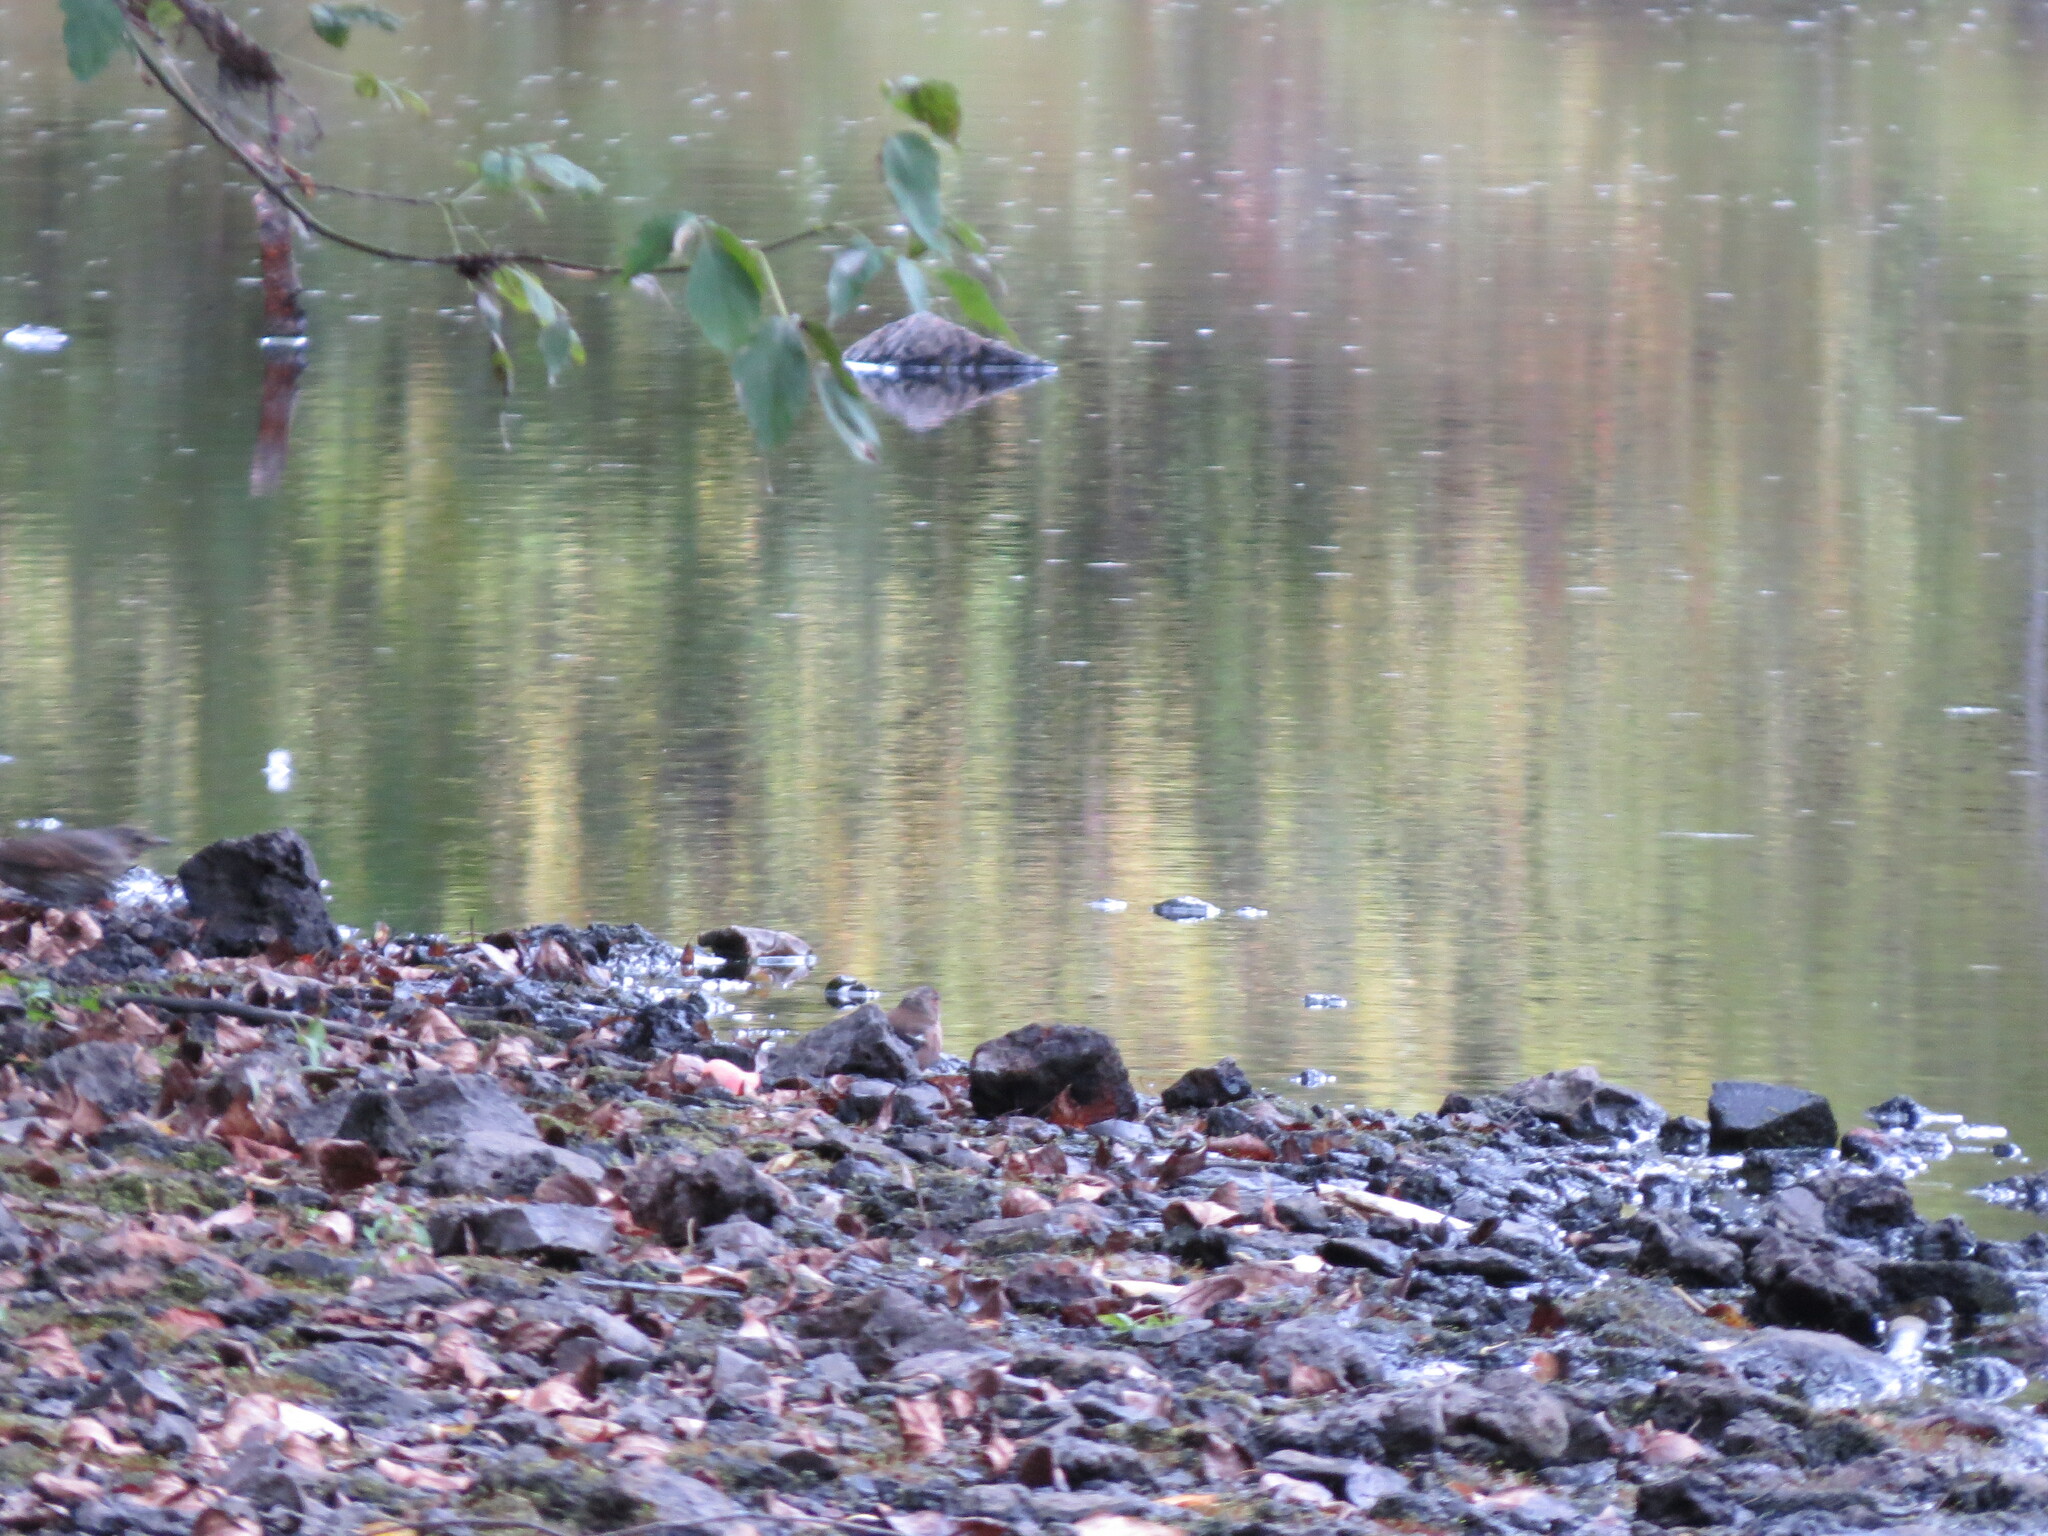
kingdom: Animalia
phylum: Chordata
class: Aves
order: Passeriformes
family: Fringillidae
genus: Fringilla
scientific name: Fringilla coelebs
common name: Common chaffinch
